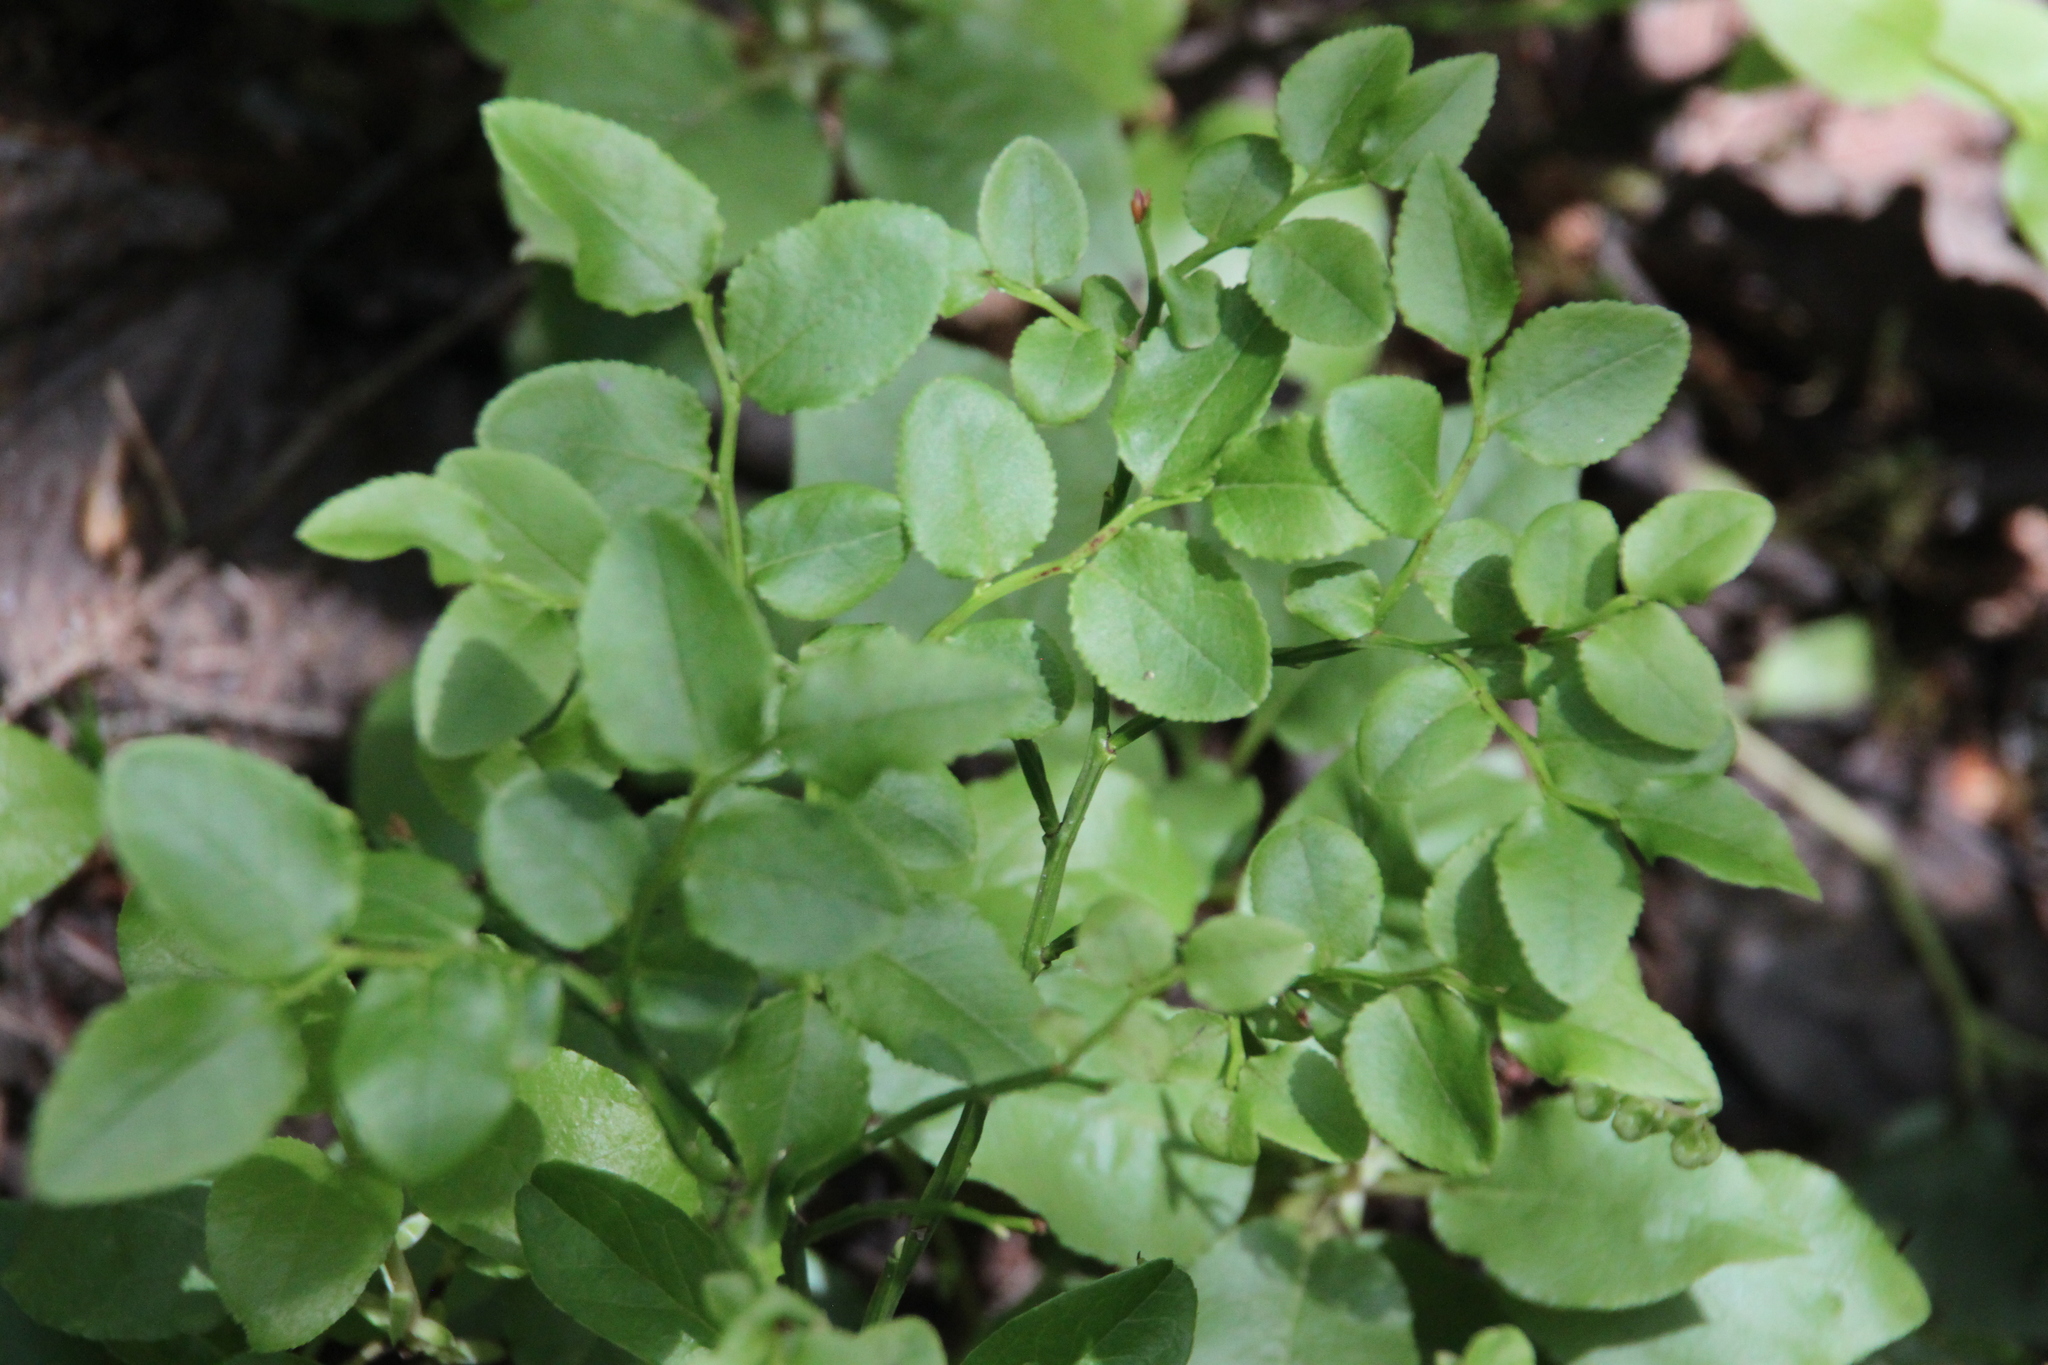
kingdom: Plantae
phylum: Tracheophyta
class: Magnoliopsida
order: Ericales
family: Ericaceae
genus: Vaccinium
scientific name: Vaccinium myrtillus
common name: Bilberry
